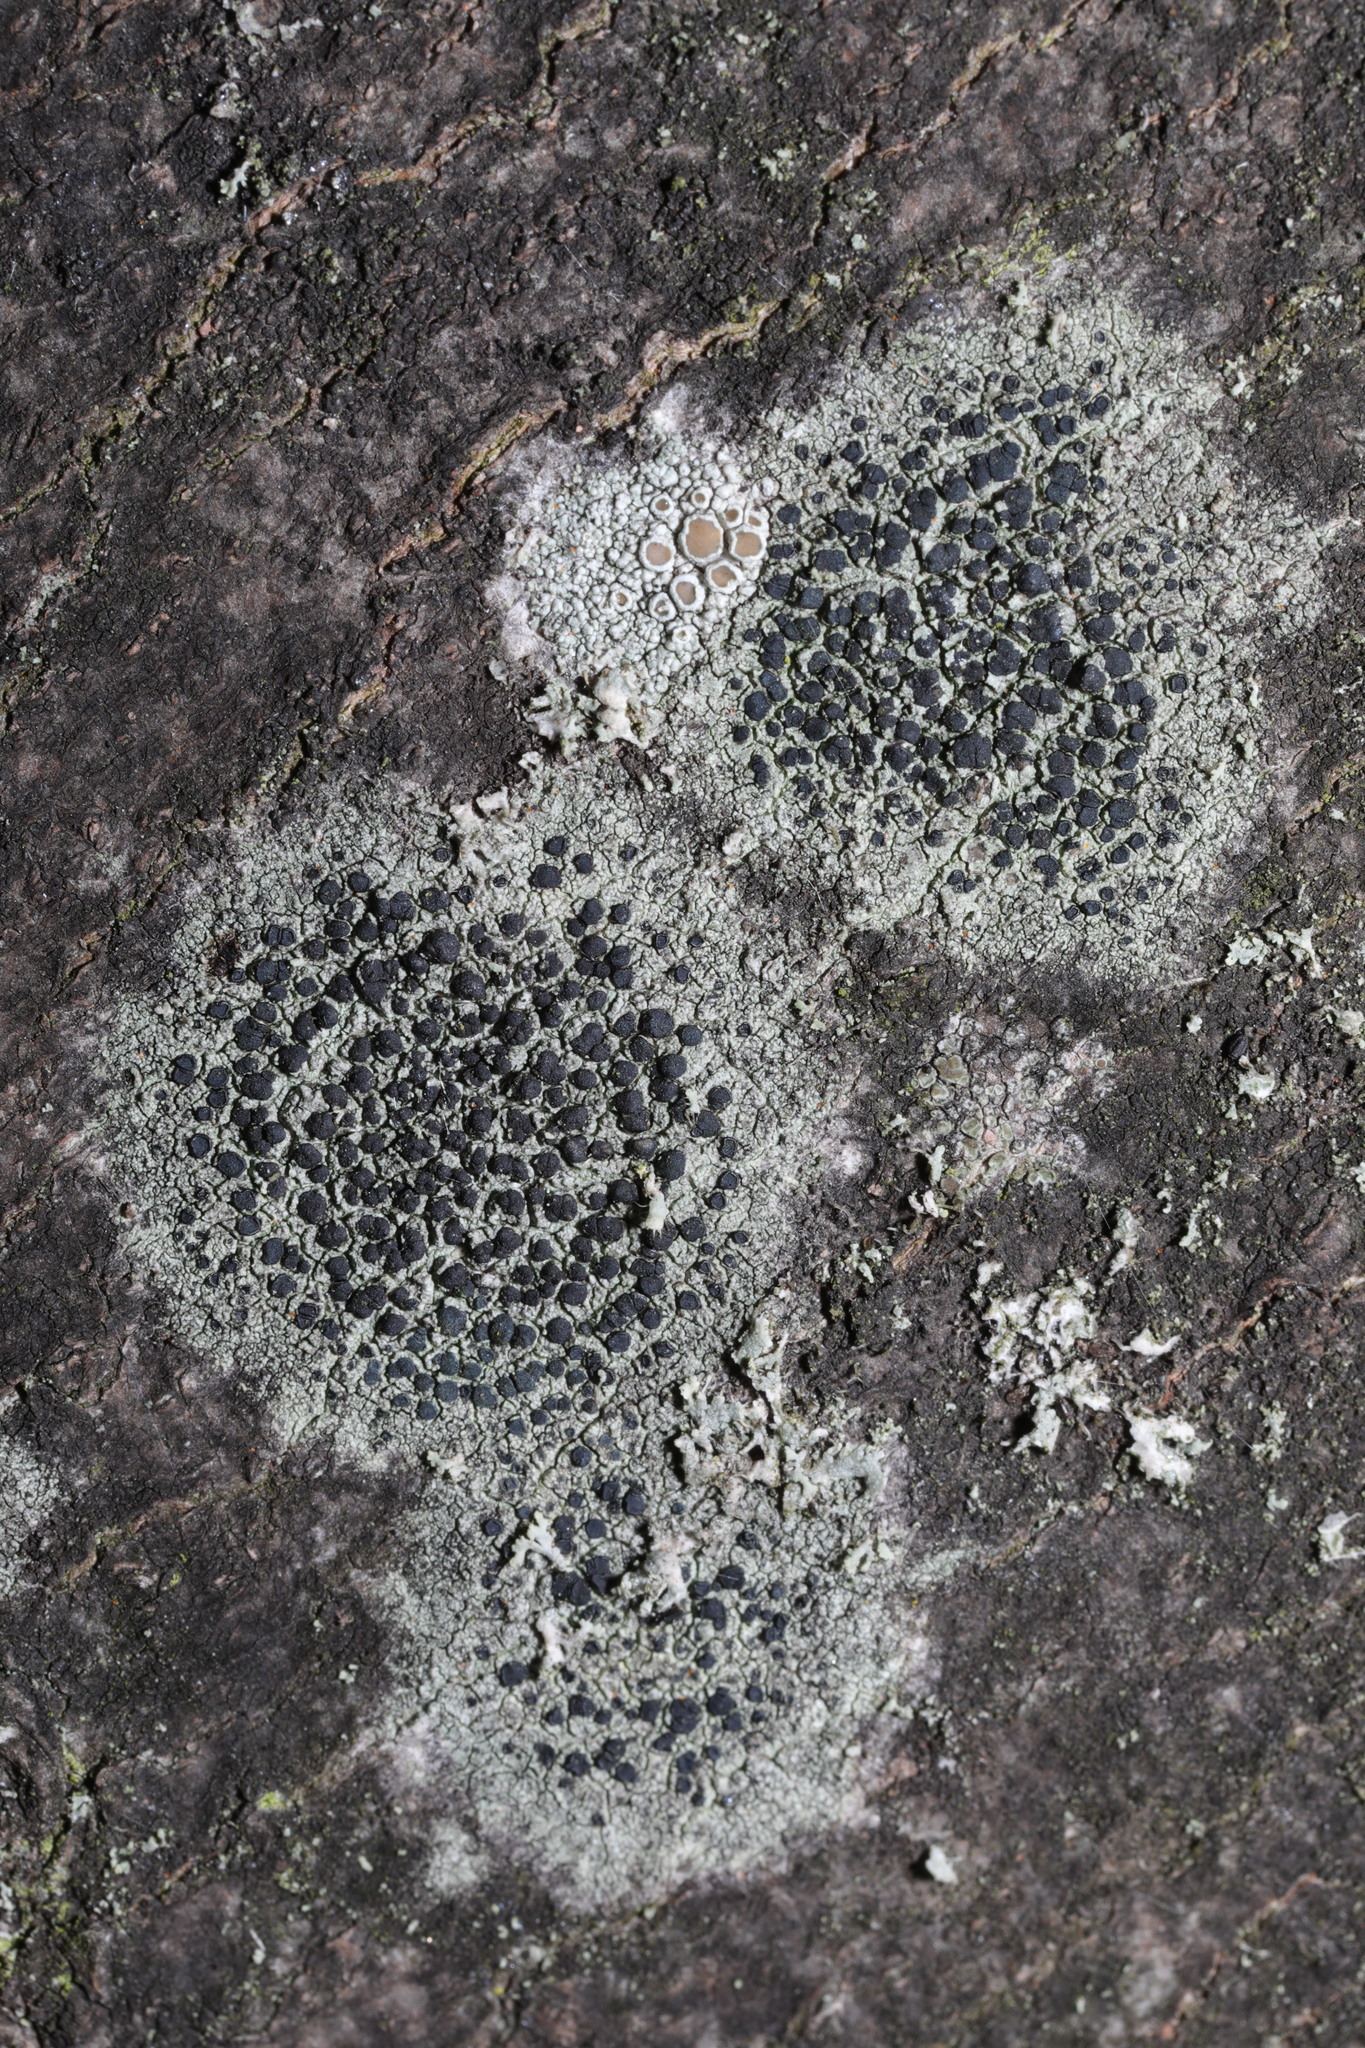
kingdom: Fungi
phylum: Ascomycota
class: Lecanoromycetes
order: Lecanorales
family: Lecanoraceae
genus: Lecidella
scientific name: Lecidella elaeochroma
